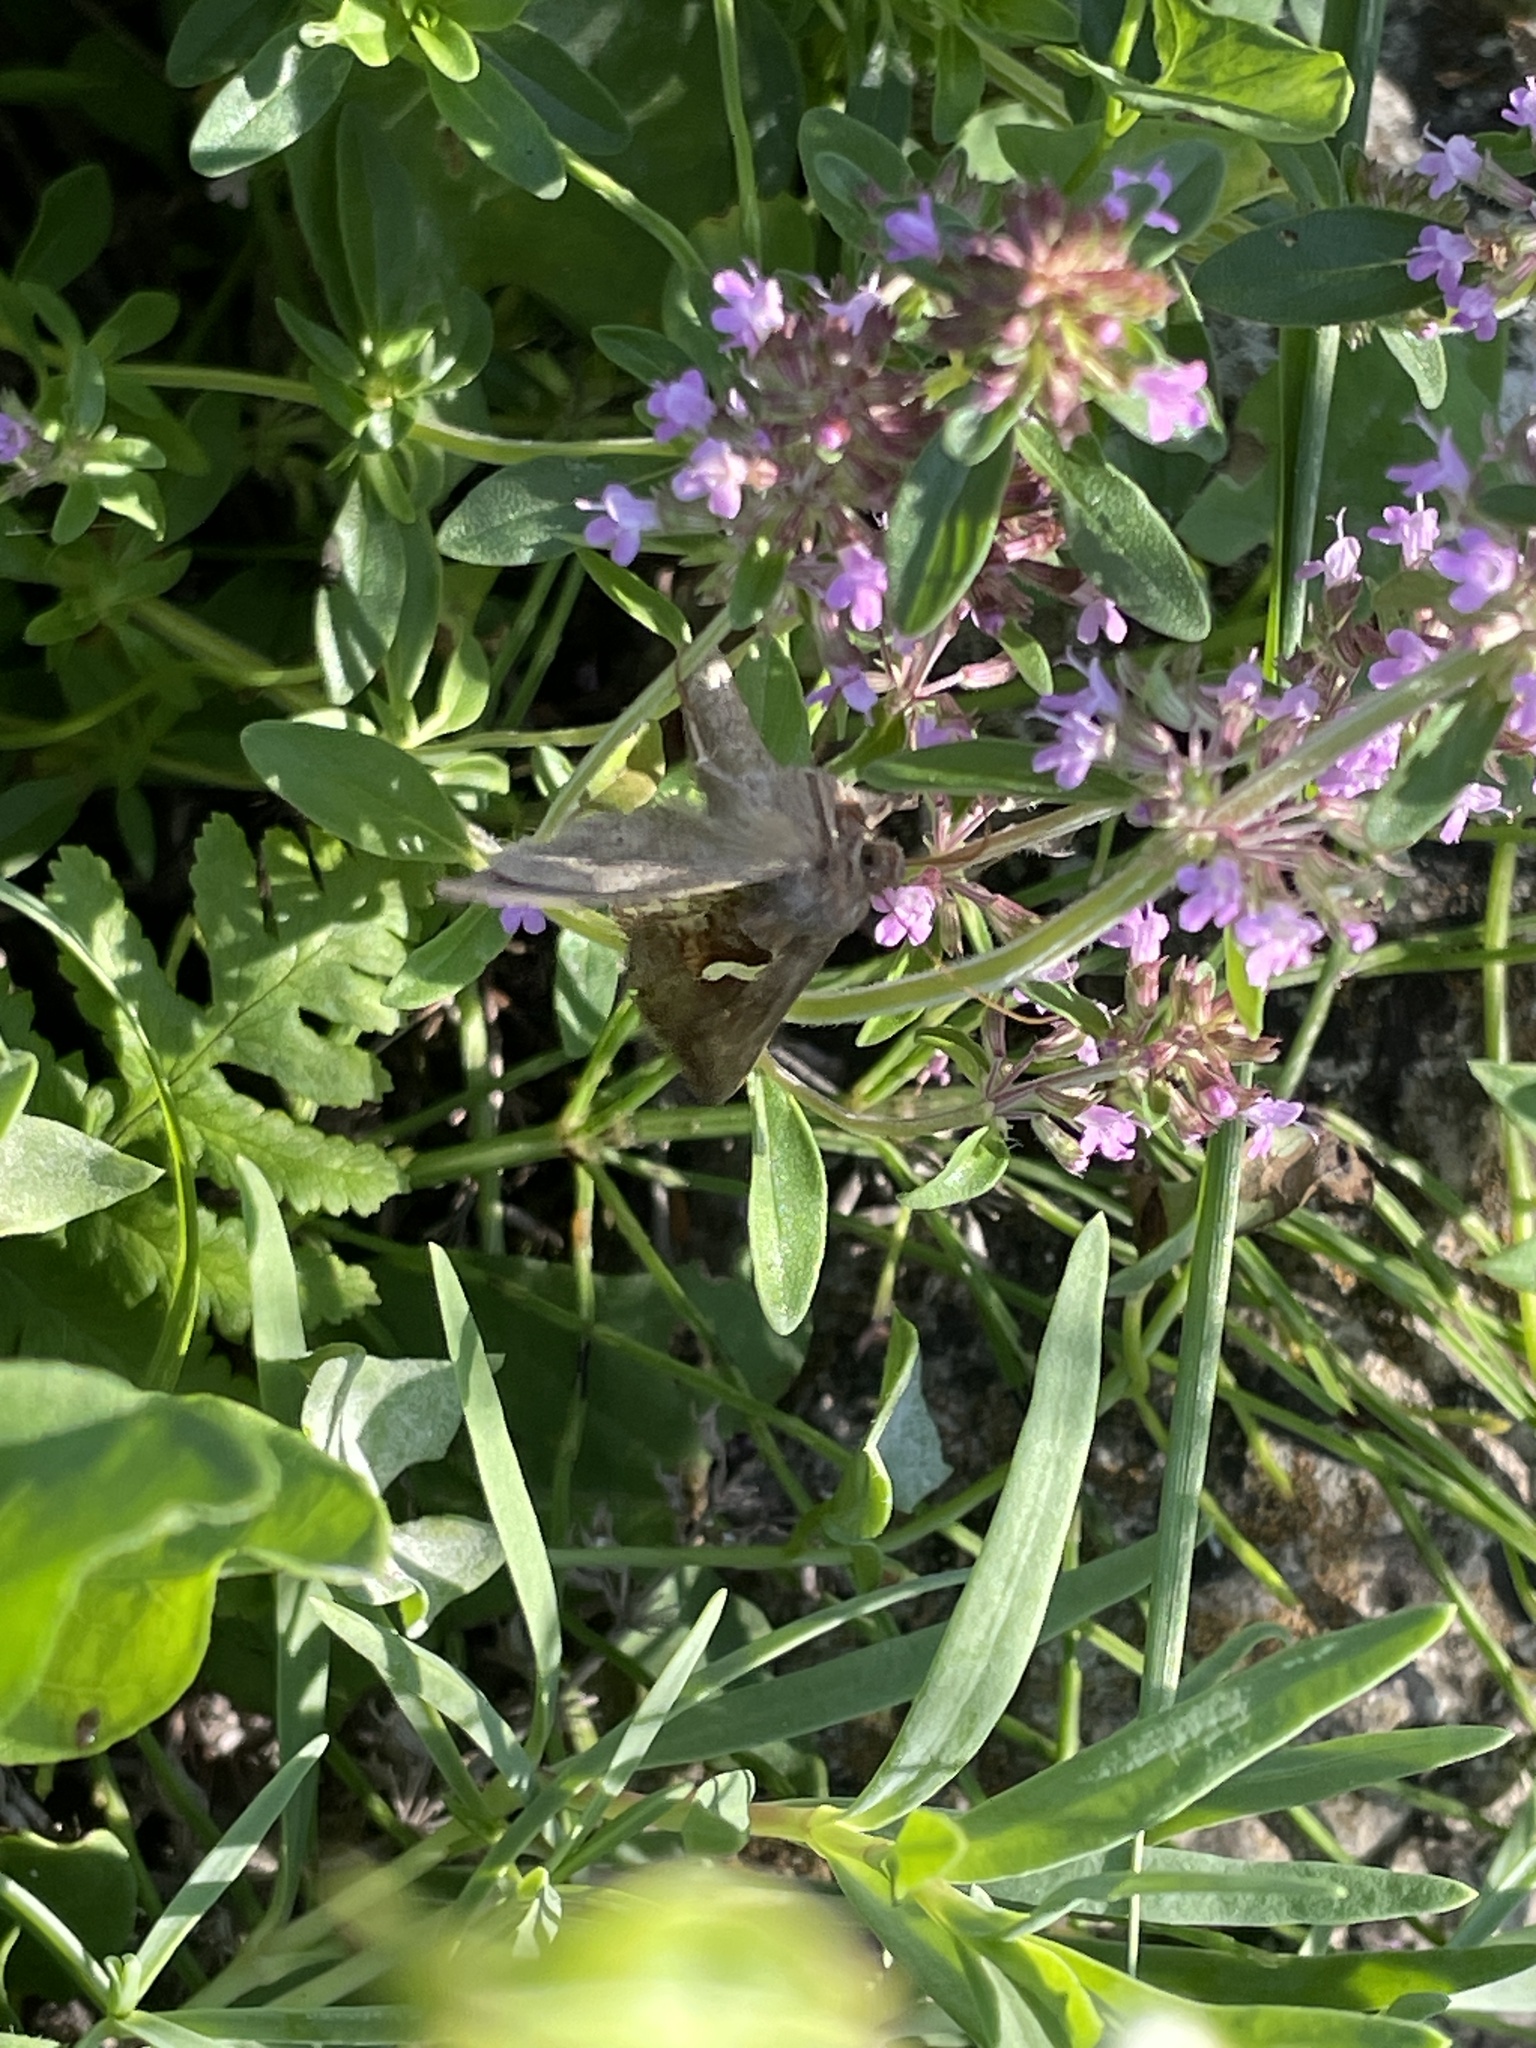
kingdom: Animalia
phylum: Arthropoda
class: Insecta
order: Lepidoptera
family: Noctuidae
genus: Macdunnoughia
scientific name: Macdunnoughia confusa
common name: Dewick's plusia
